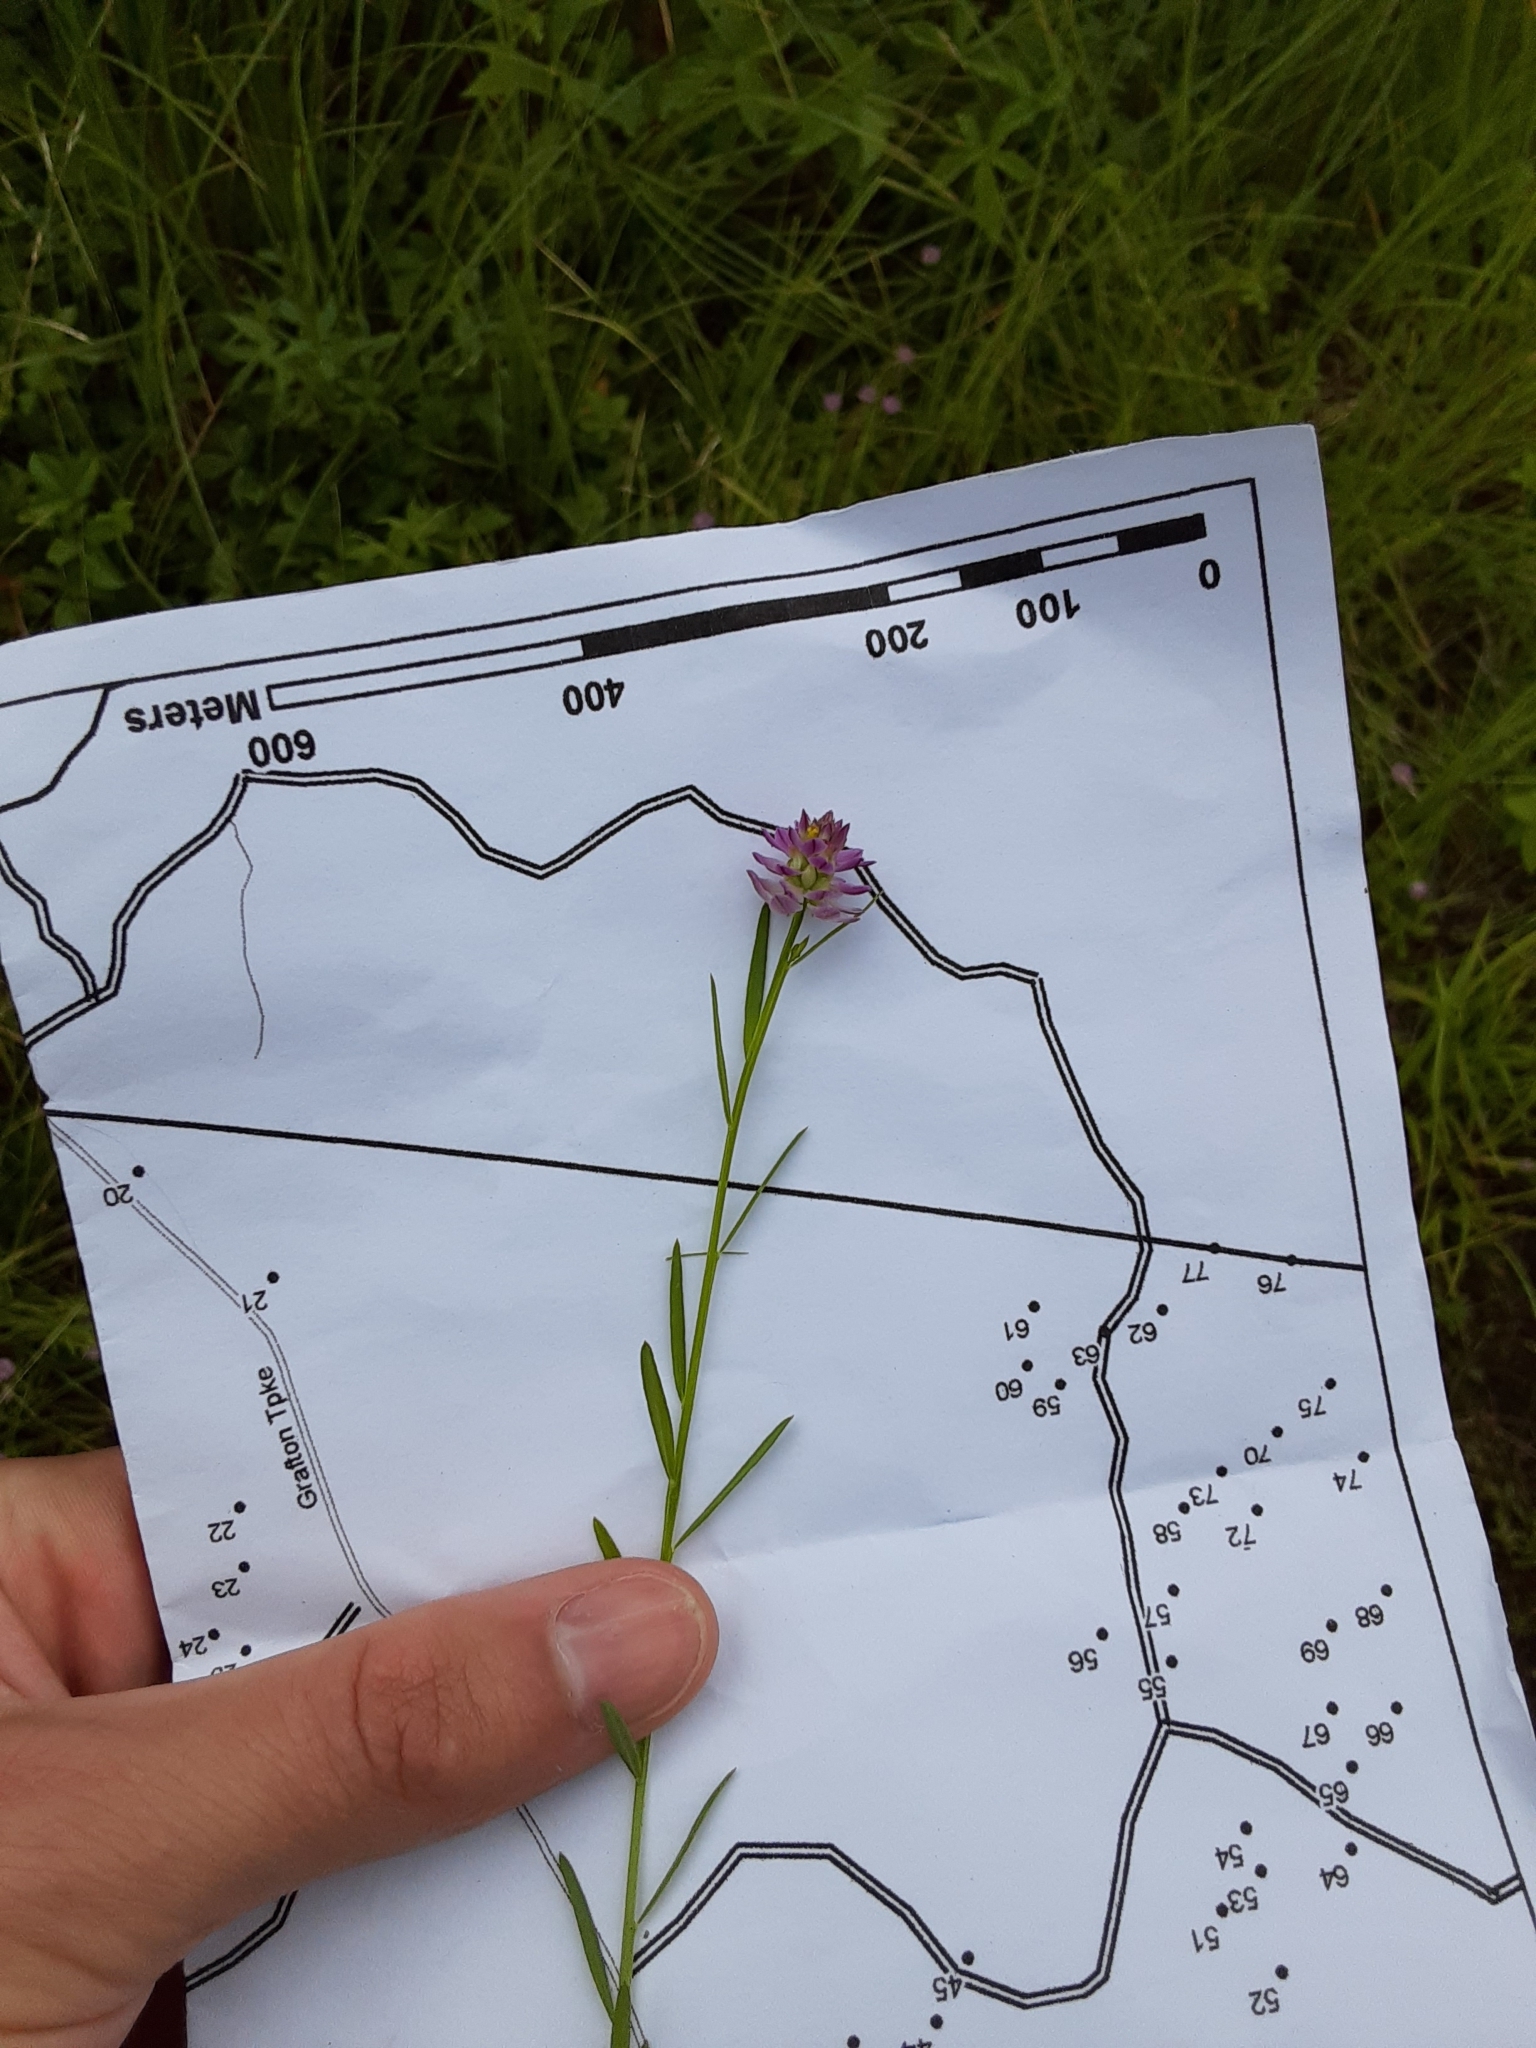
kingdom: Plantae
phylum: Tracheophyta
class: Magnoliopsida
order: Fabales
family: Polygalaceae
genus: Polygala
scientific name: Polygala sanguinea
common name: Blood milkwort
